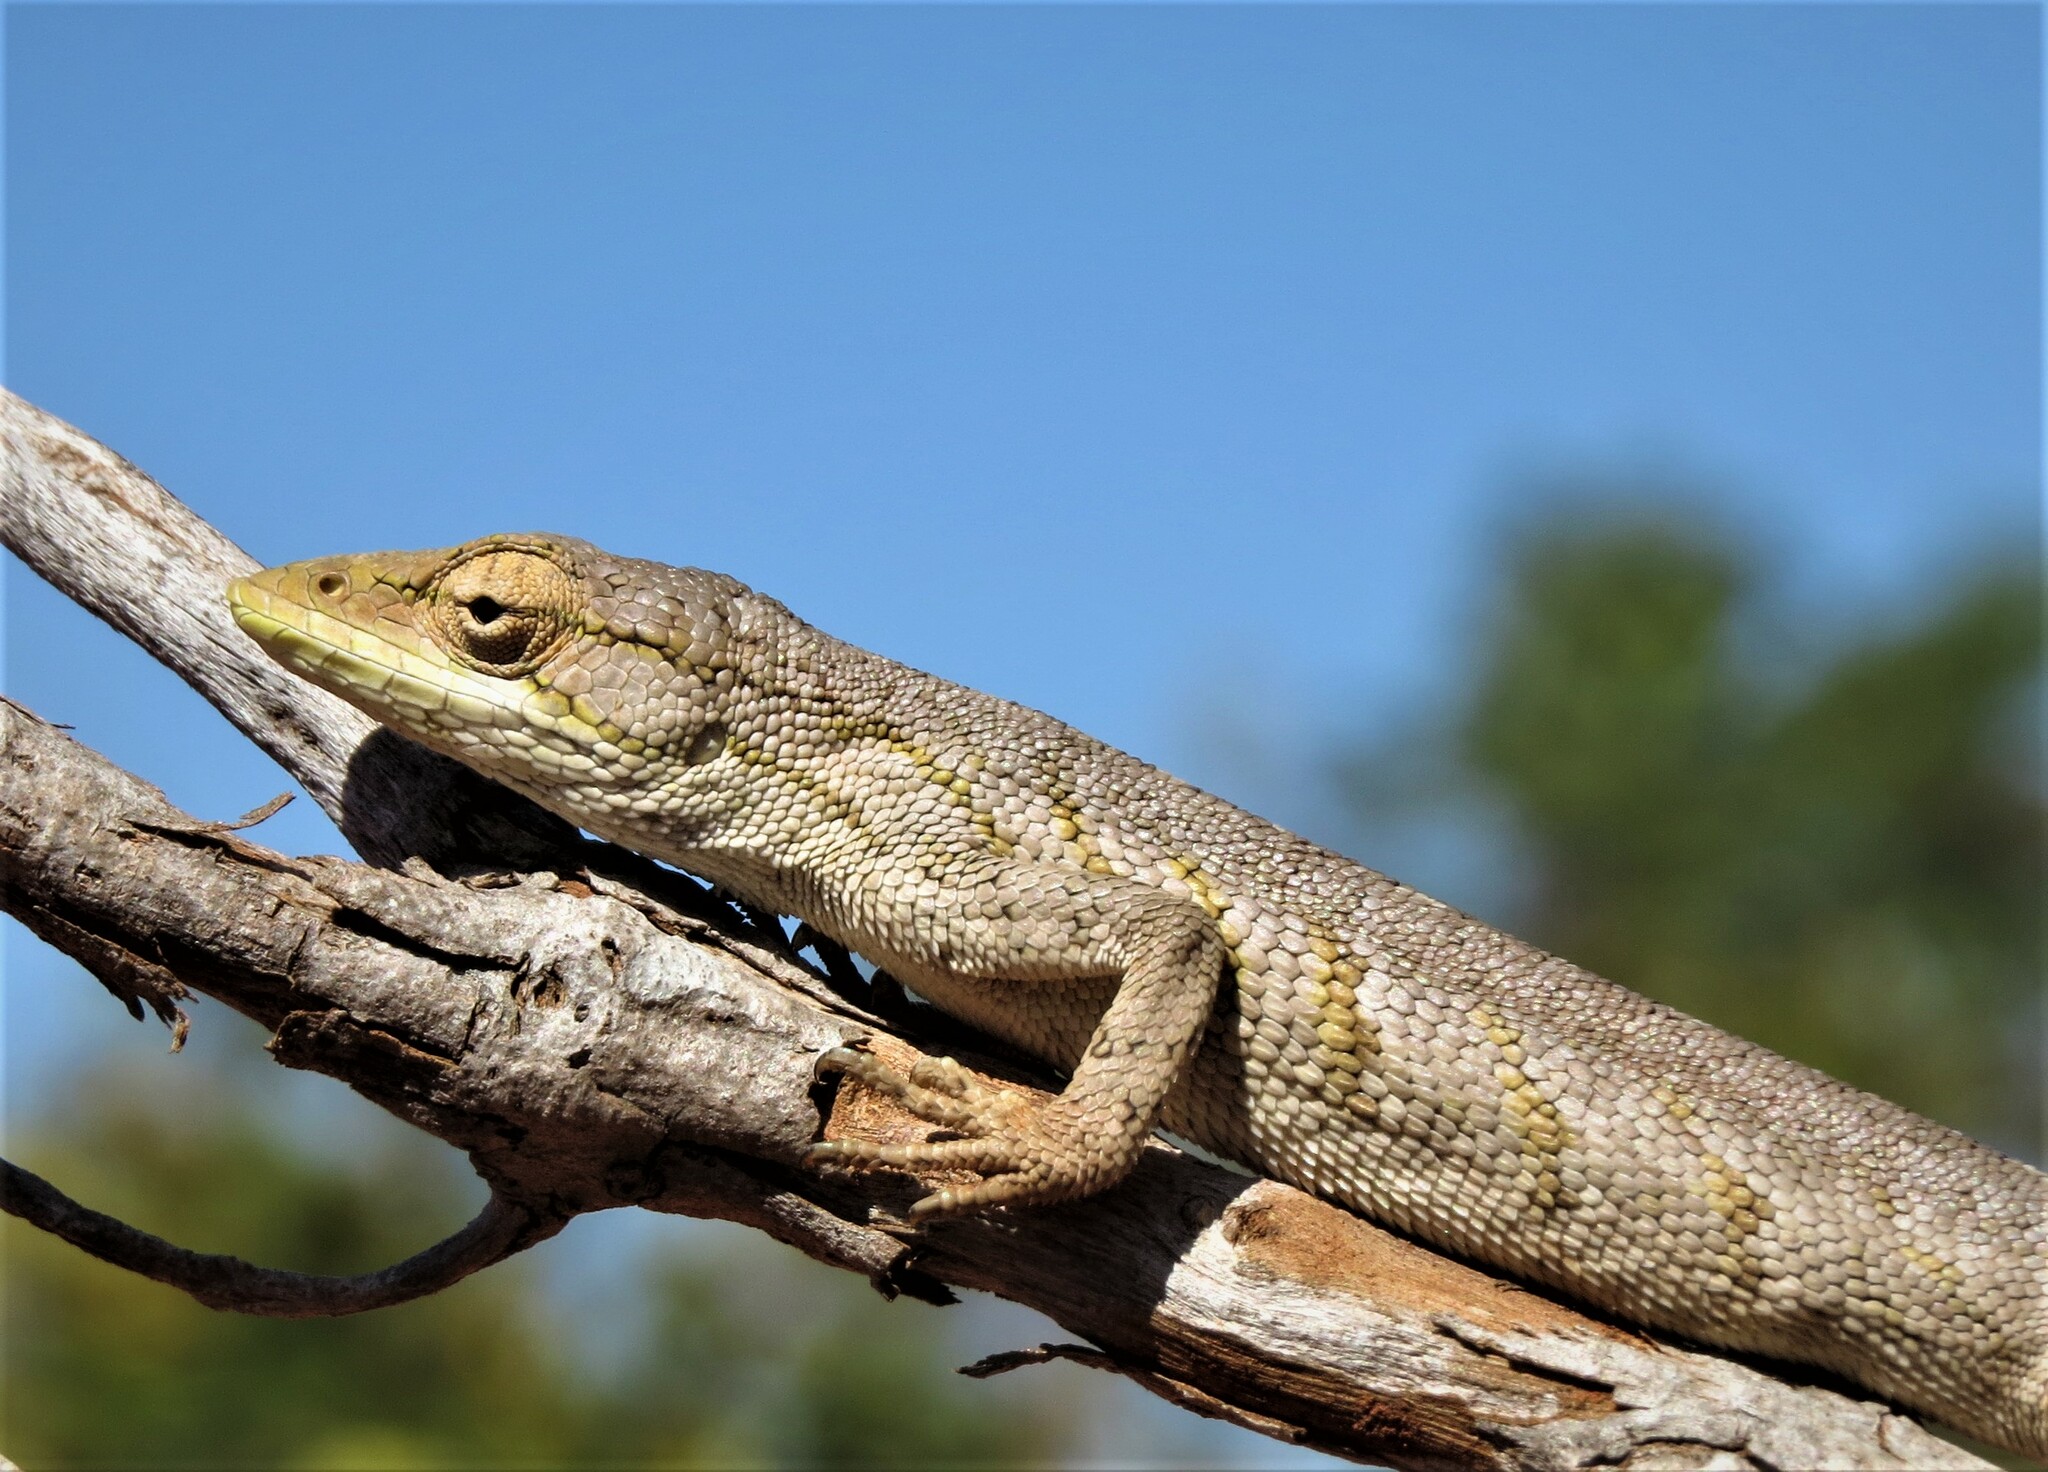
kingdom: Animalia
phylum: Chordata
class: Squamata
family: Polychrotidae
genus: Polychrus
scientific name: Polychrus acutirostris
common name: Brazilian bush anole
